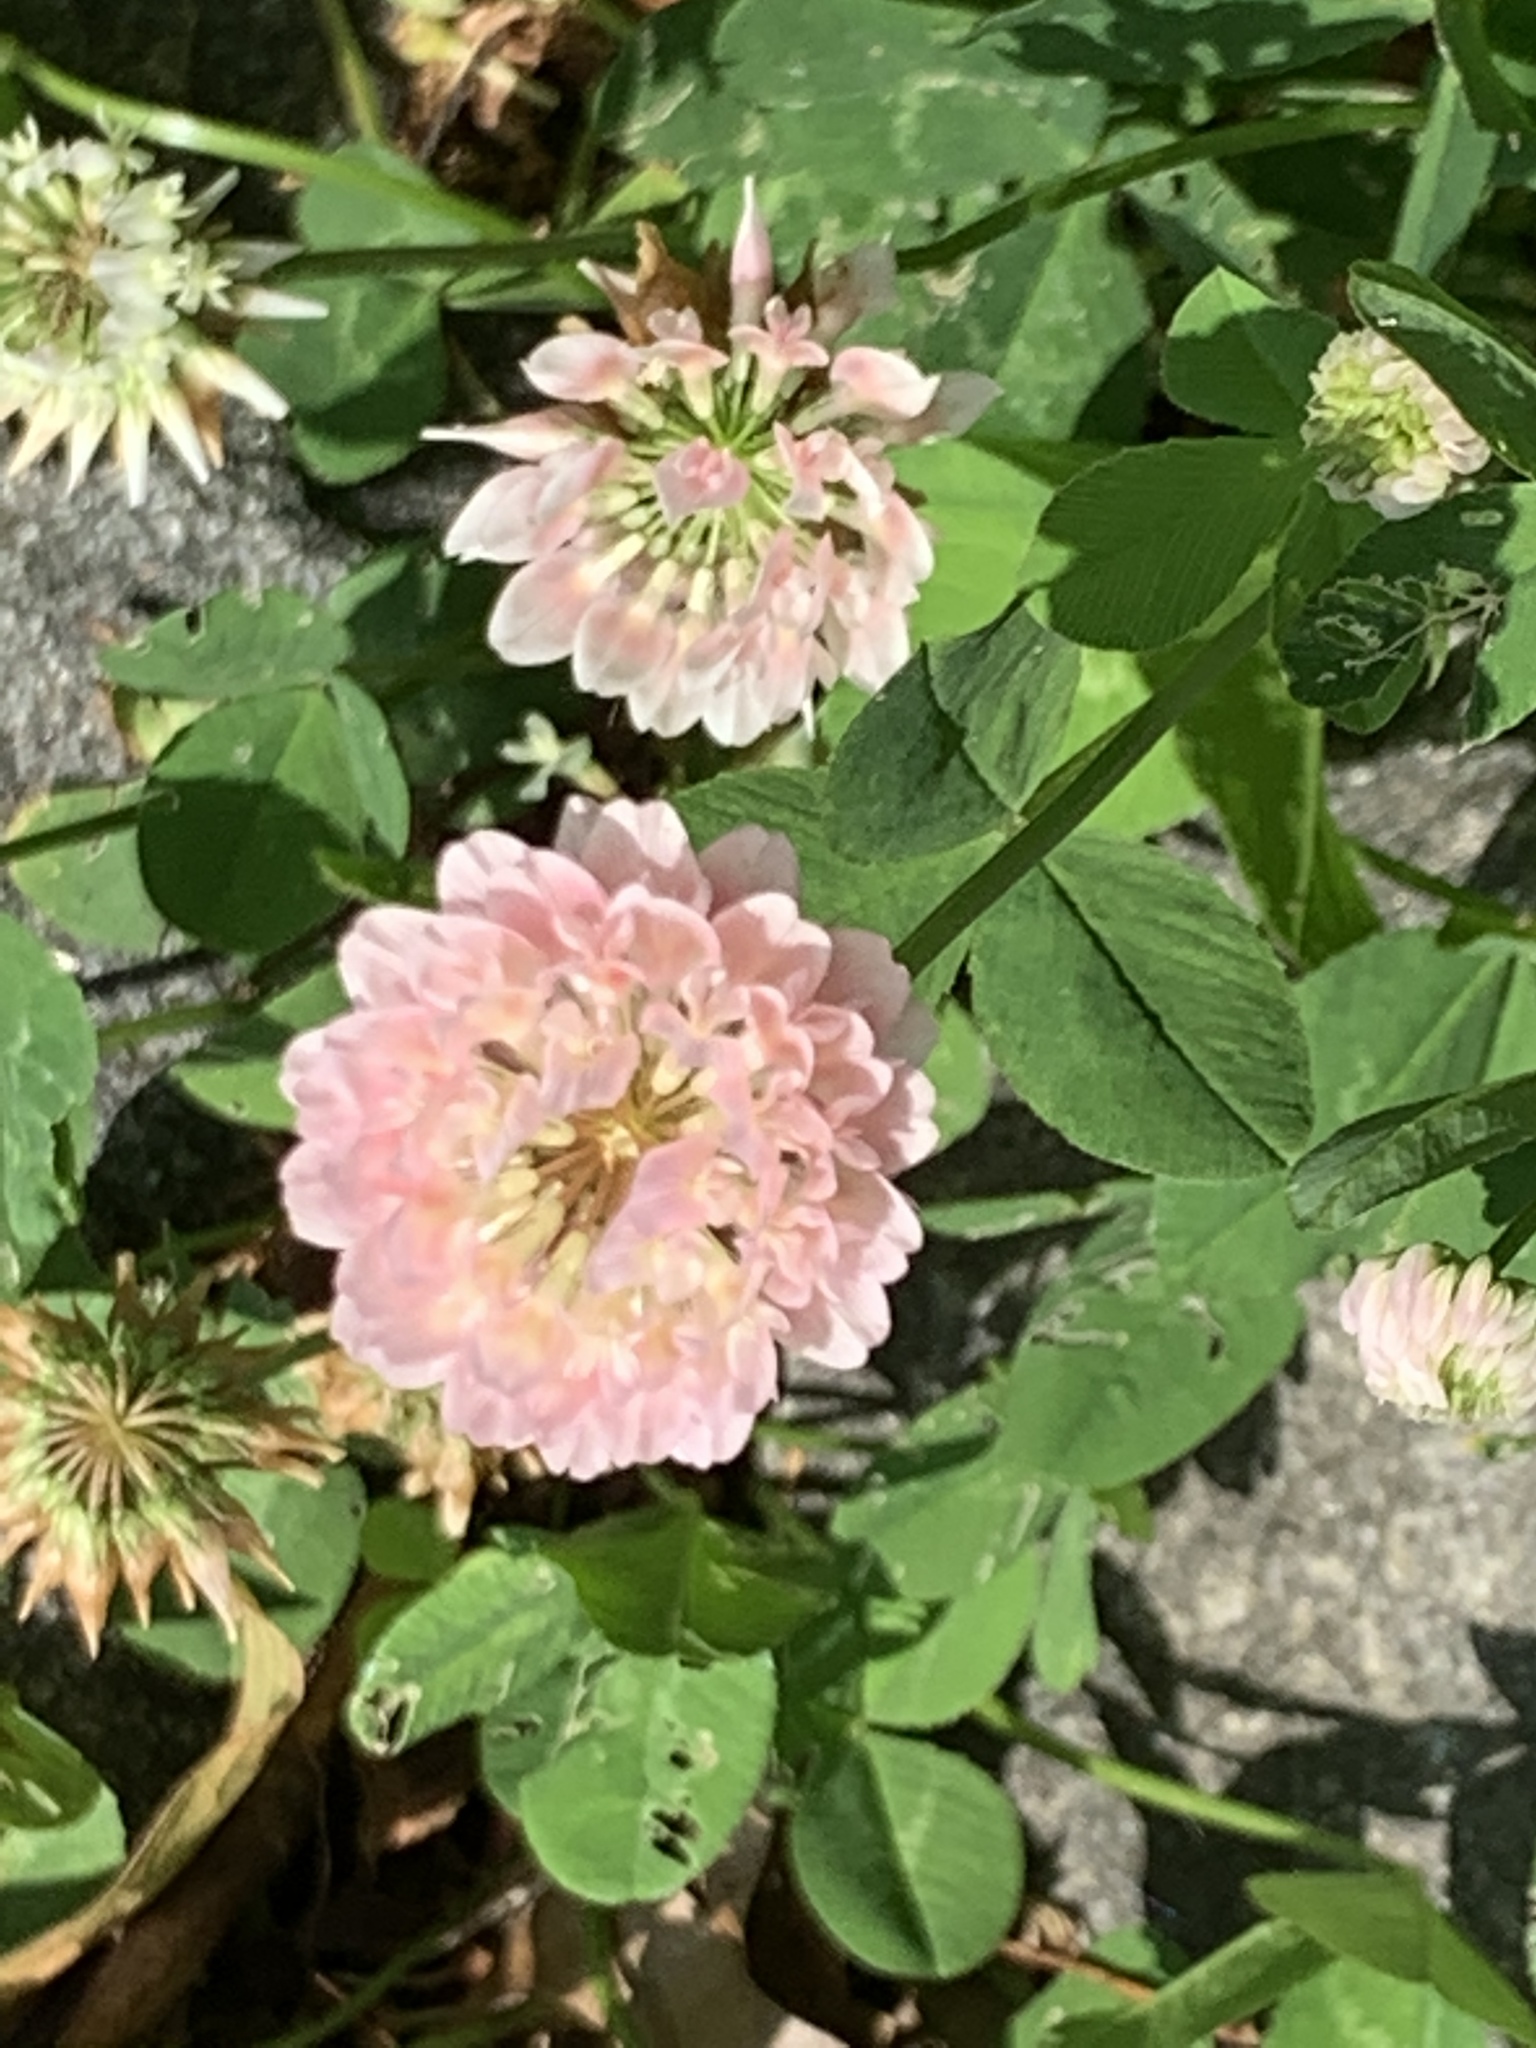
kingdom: Plantae
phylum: Tracheophyta
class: Magnoliopsida
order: Fabales
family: Fabaceae
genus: Trifolium
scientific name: Trifolium hybridum
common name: Alsike clover
